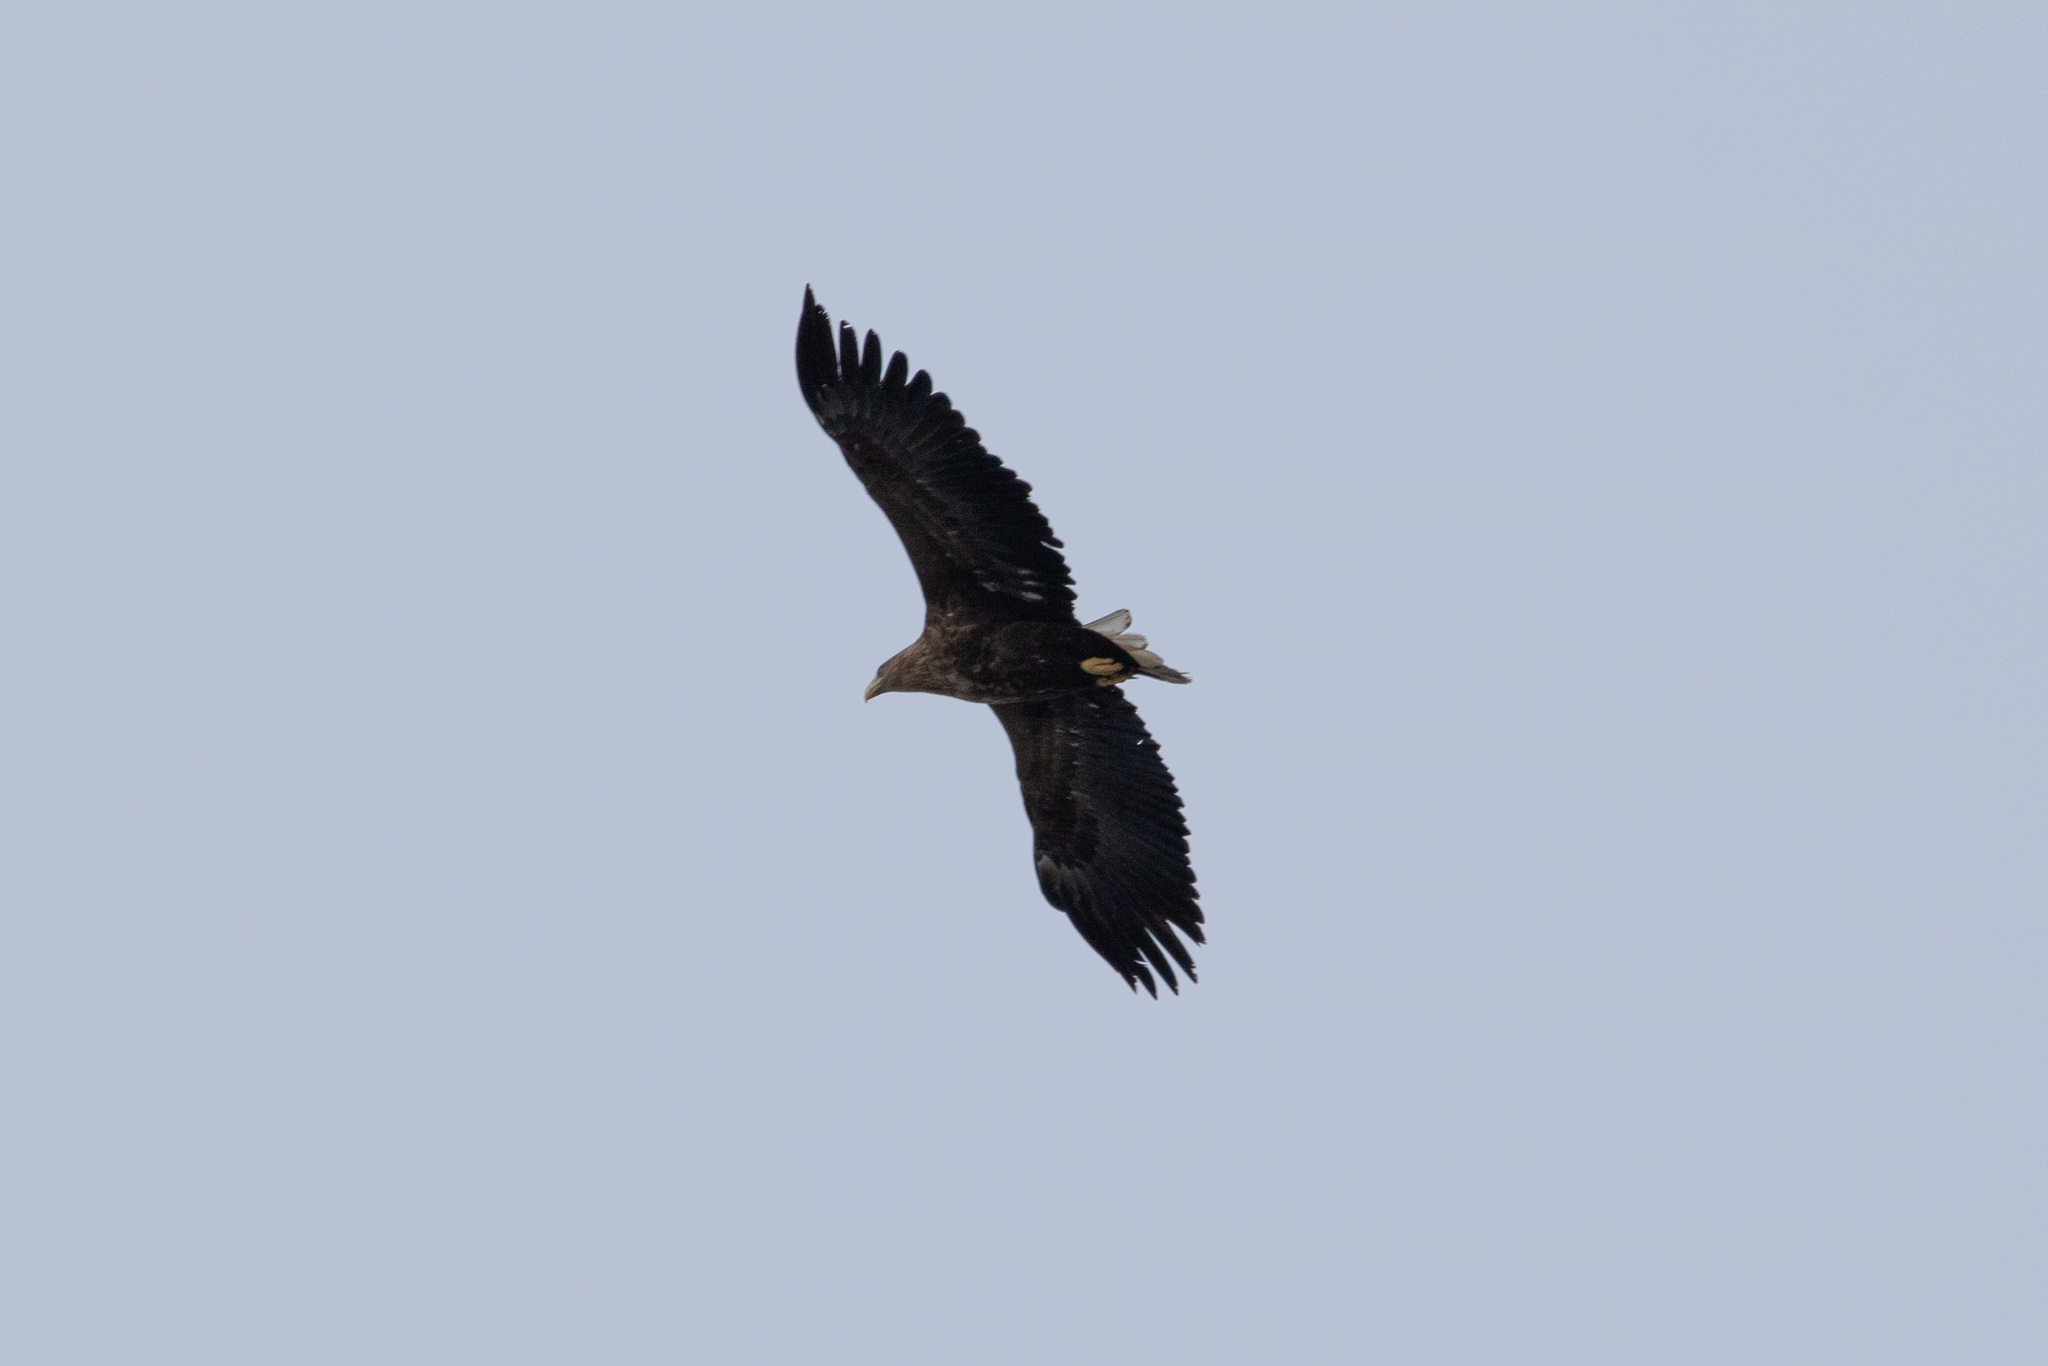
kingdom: Animalia
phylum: Chordata
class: Aves
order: Accipitriformes
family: Accipitridae
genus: Haliaeetus
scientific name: Haliaeetus albicilla
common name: White-tailed eagle
